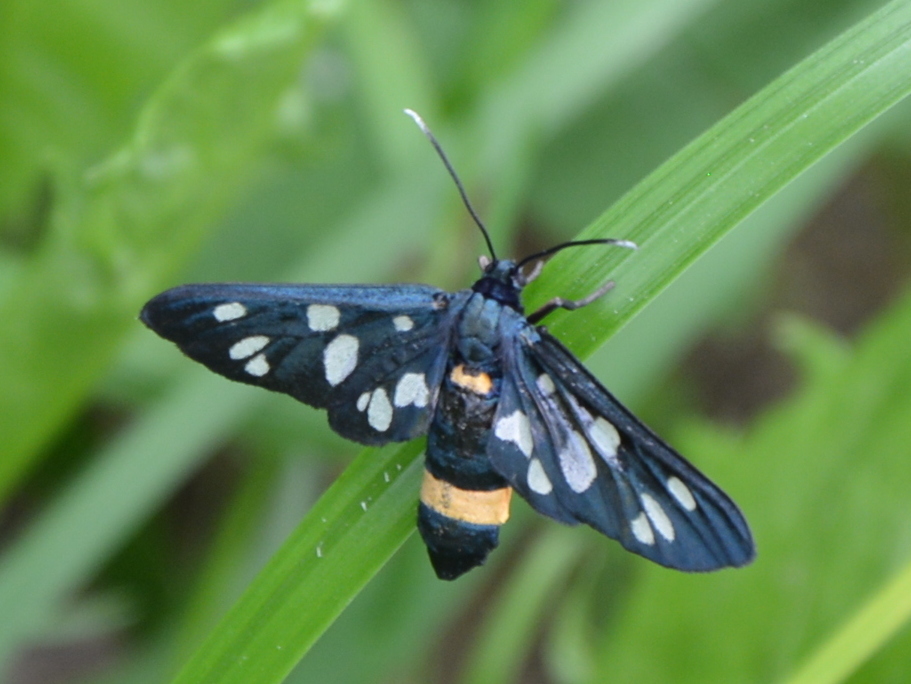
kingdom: Animalia
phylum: Arthropoda
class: Insecta
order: Lepidoptera
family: Erebidae
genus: Amata
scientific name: Amata phegea
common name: Nine-spotted
